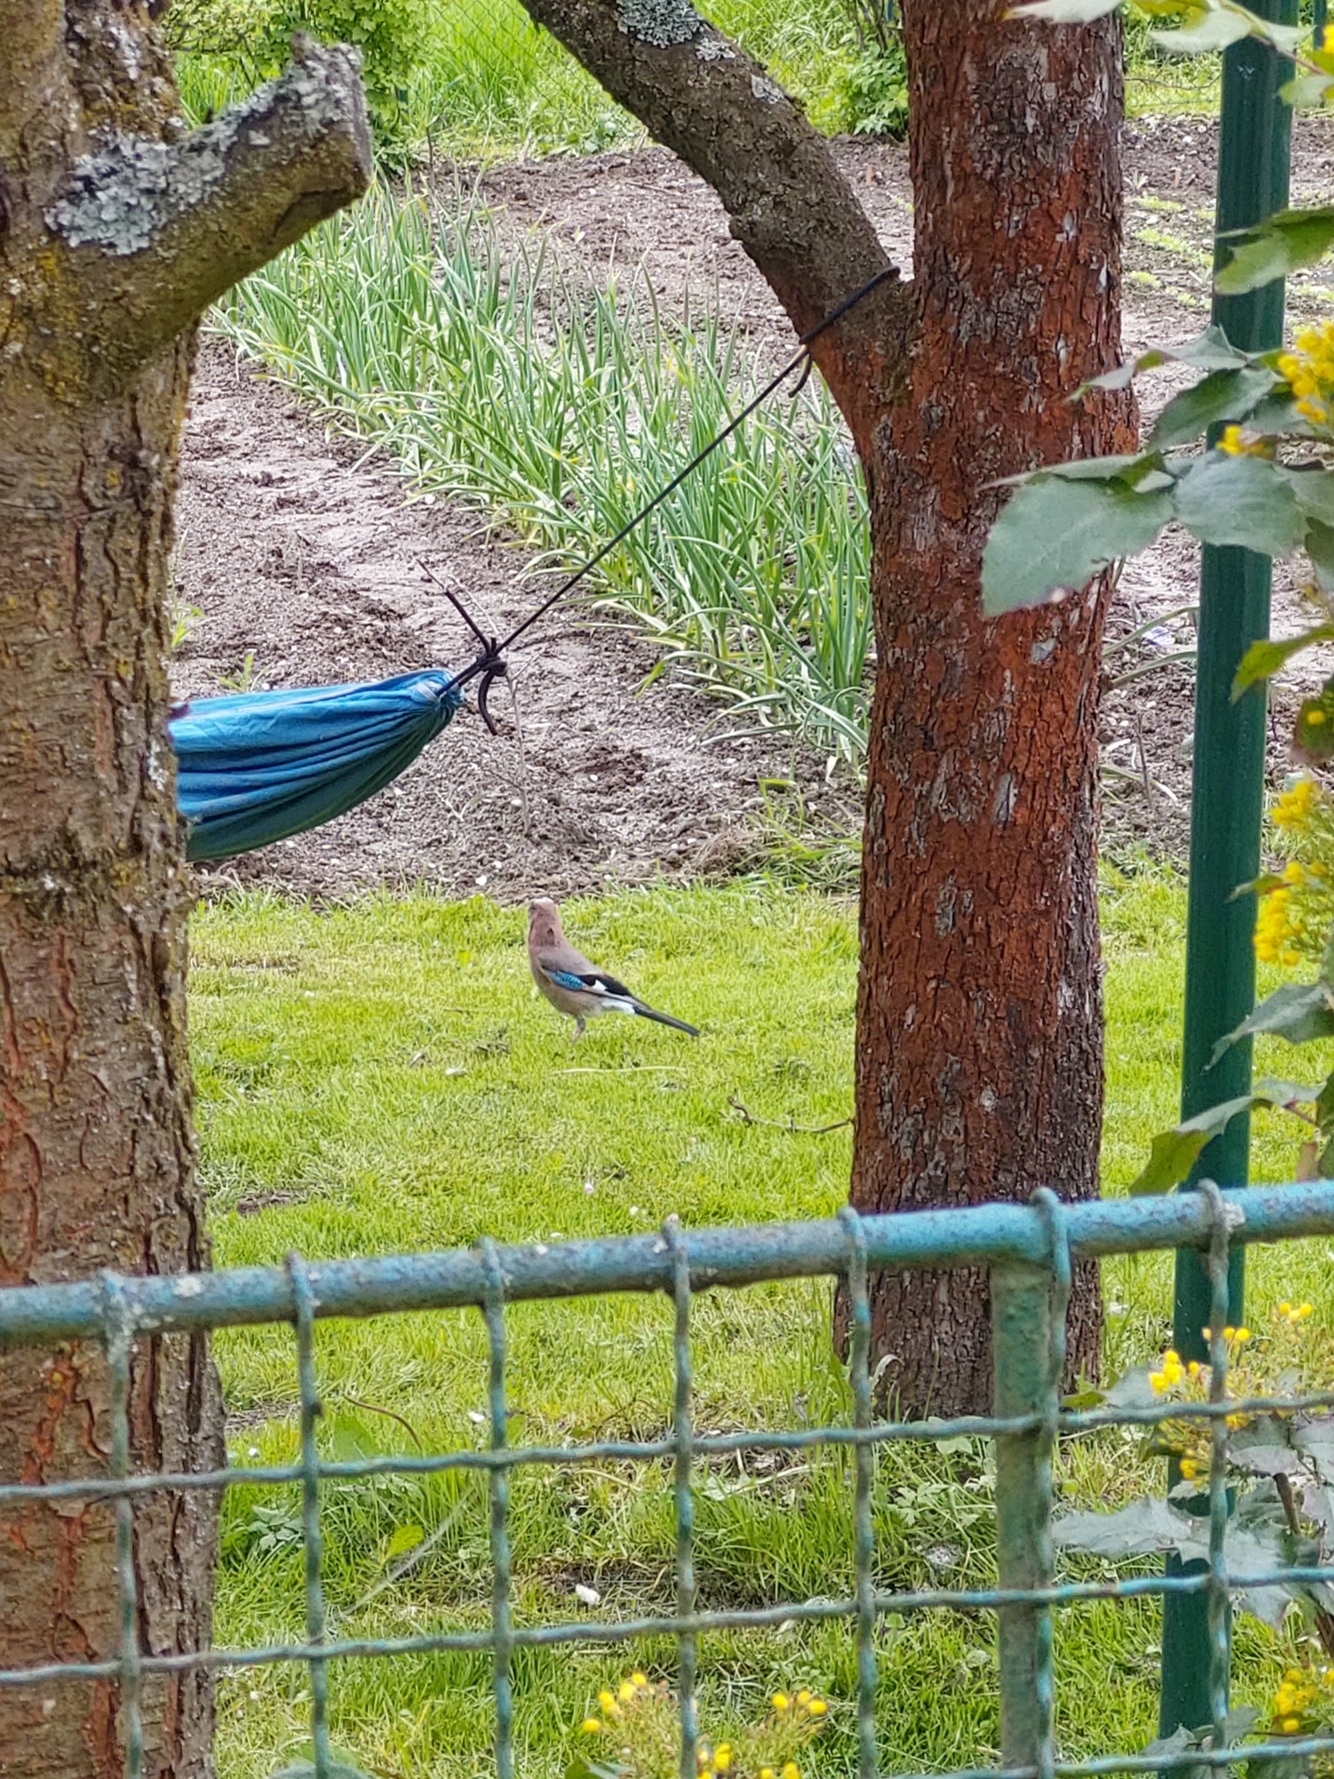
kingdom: Animalia
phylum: Chordata
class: Aves
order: Passeriformes
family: Corvidae
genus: Garrulus
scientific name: Garrulus glandarius
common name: Eurasian jay
